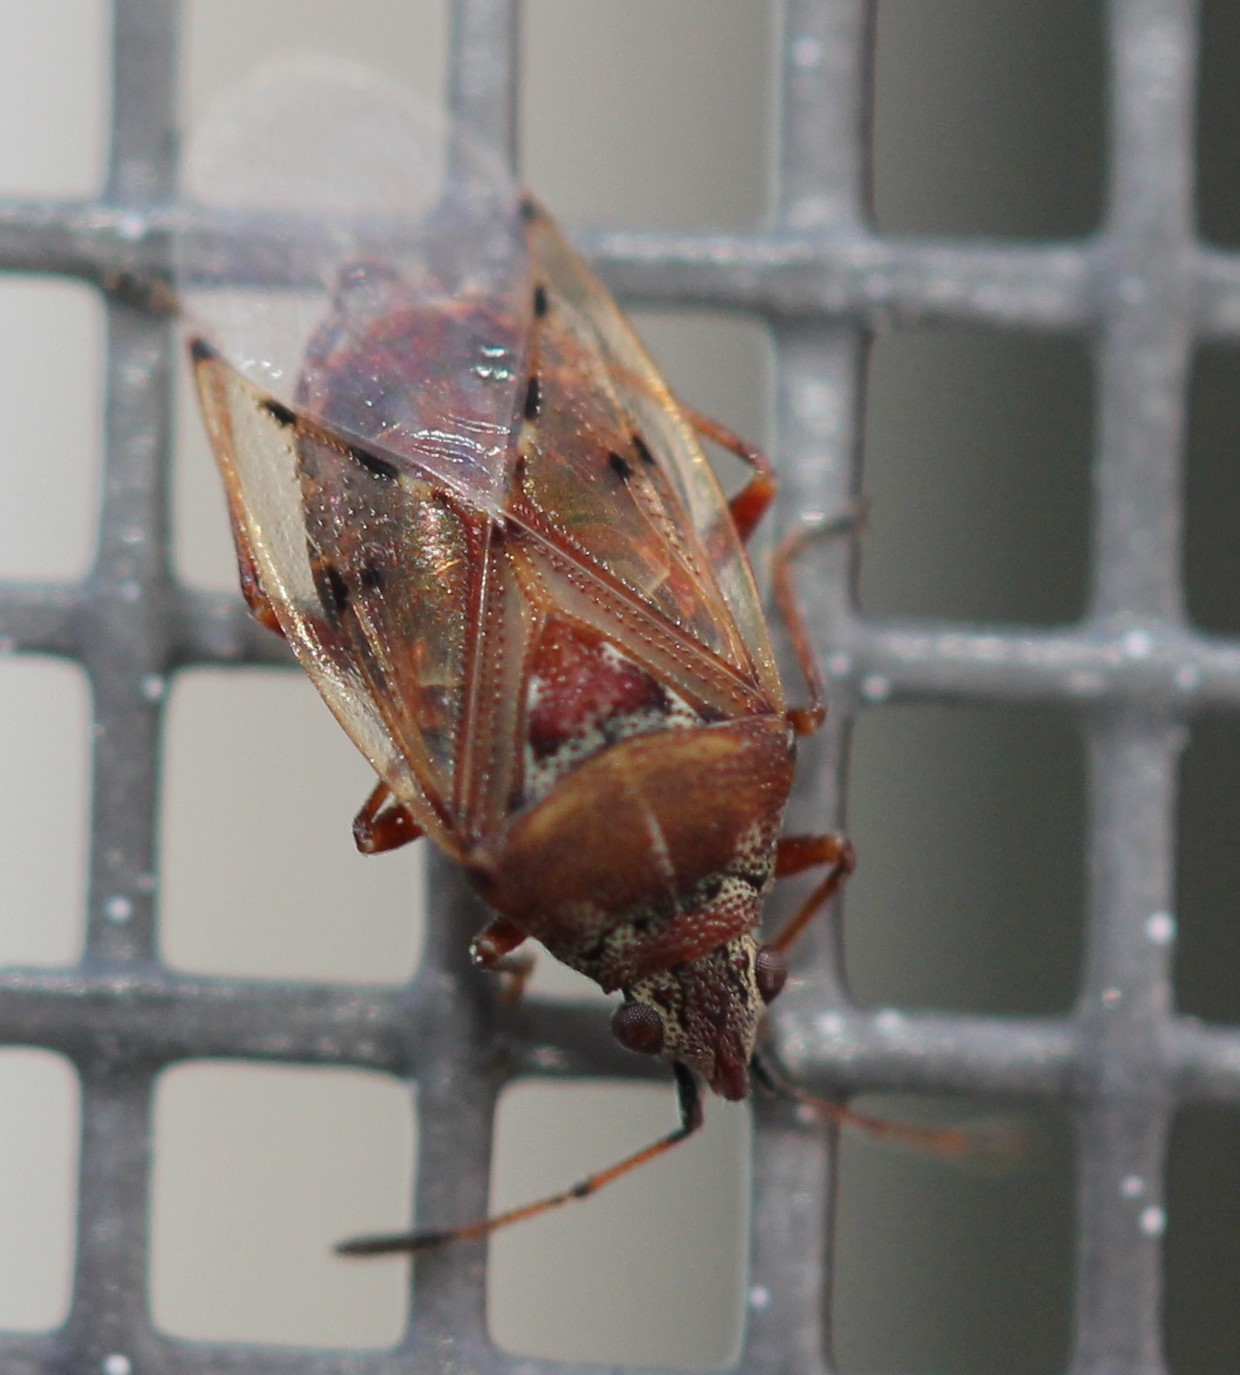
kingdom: Animalia
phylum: Arthropoda
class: Insecta
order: Hemiptera
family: Lygaeidae
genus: Kleidocerys
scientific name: Kleidocerys resedae
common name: Birch catkin bug
